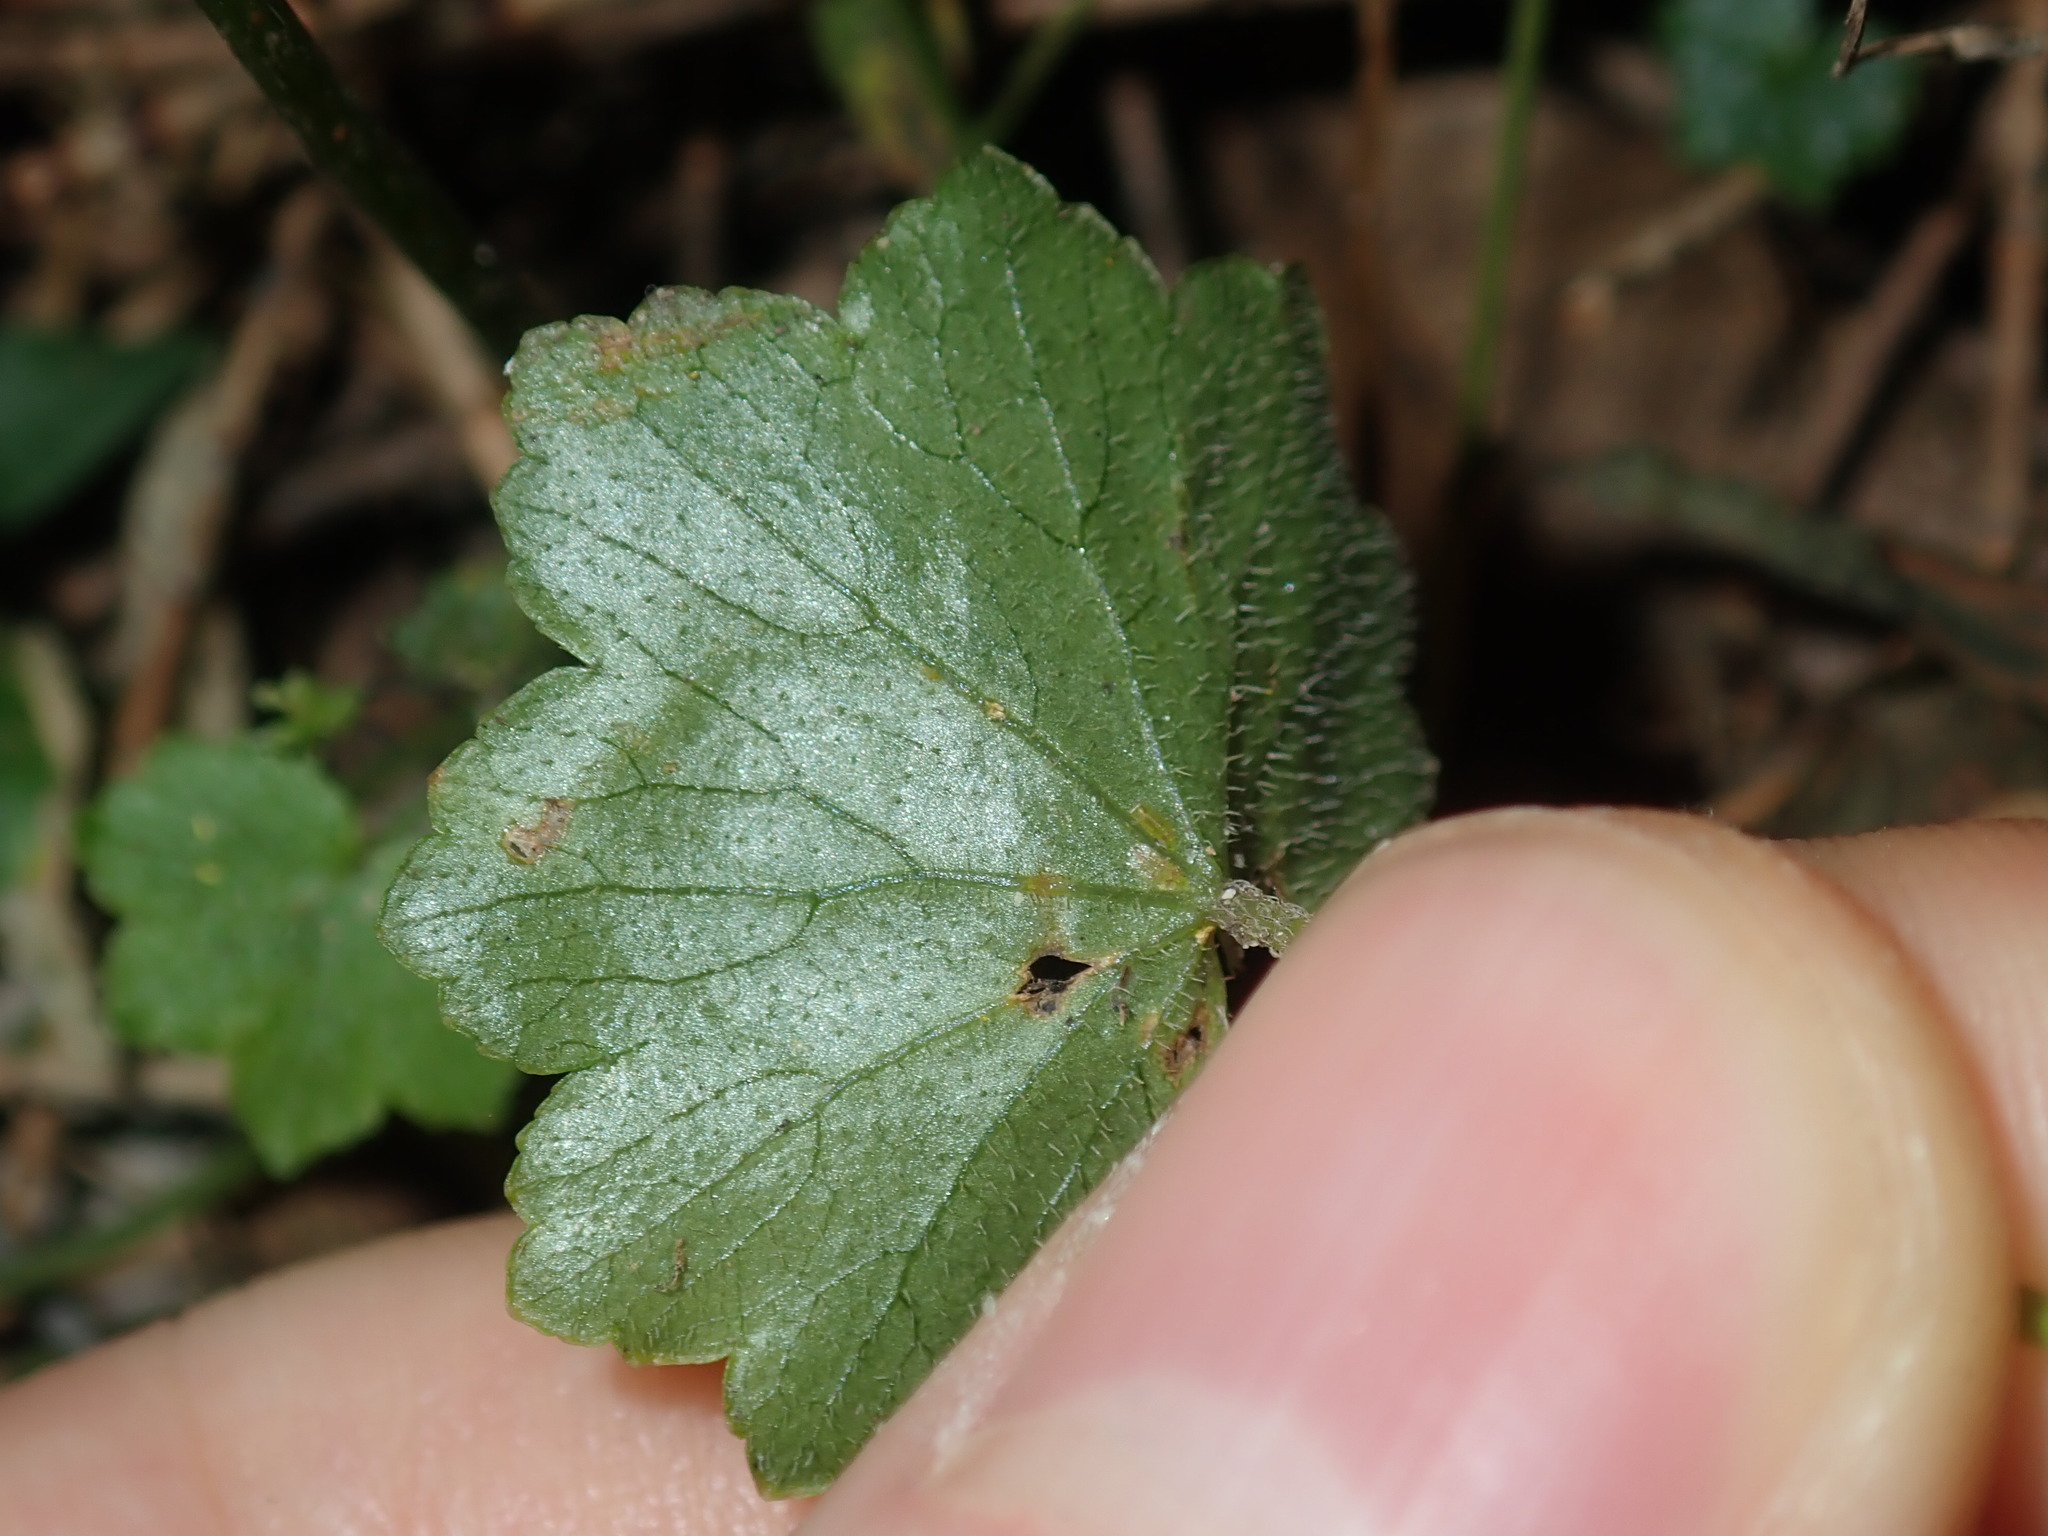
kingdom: Plantae
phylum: Tracheophyta
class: Magnoliopsida
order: Apiales
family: Araliaceae
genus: Hydrocotyle
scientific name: Hydrocotyle hirta
